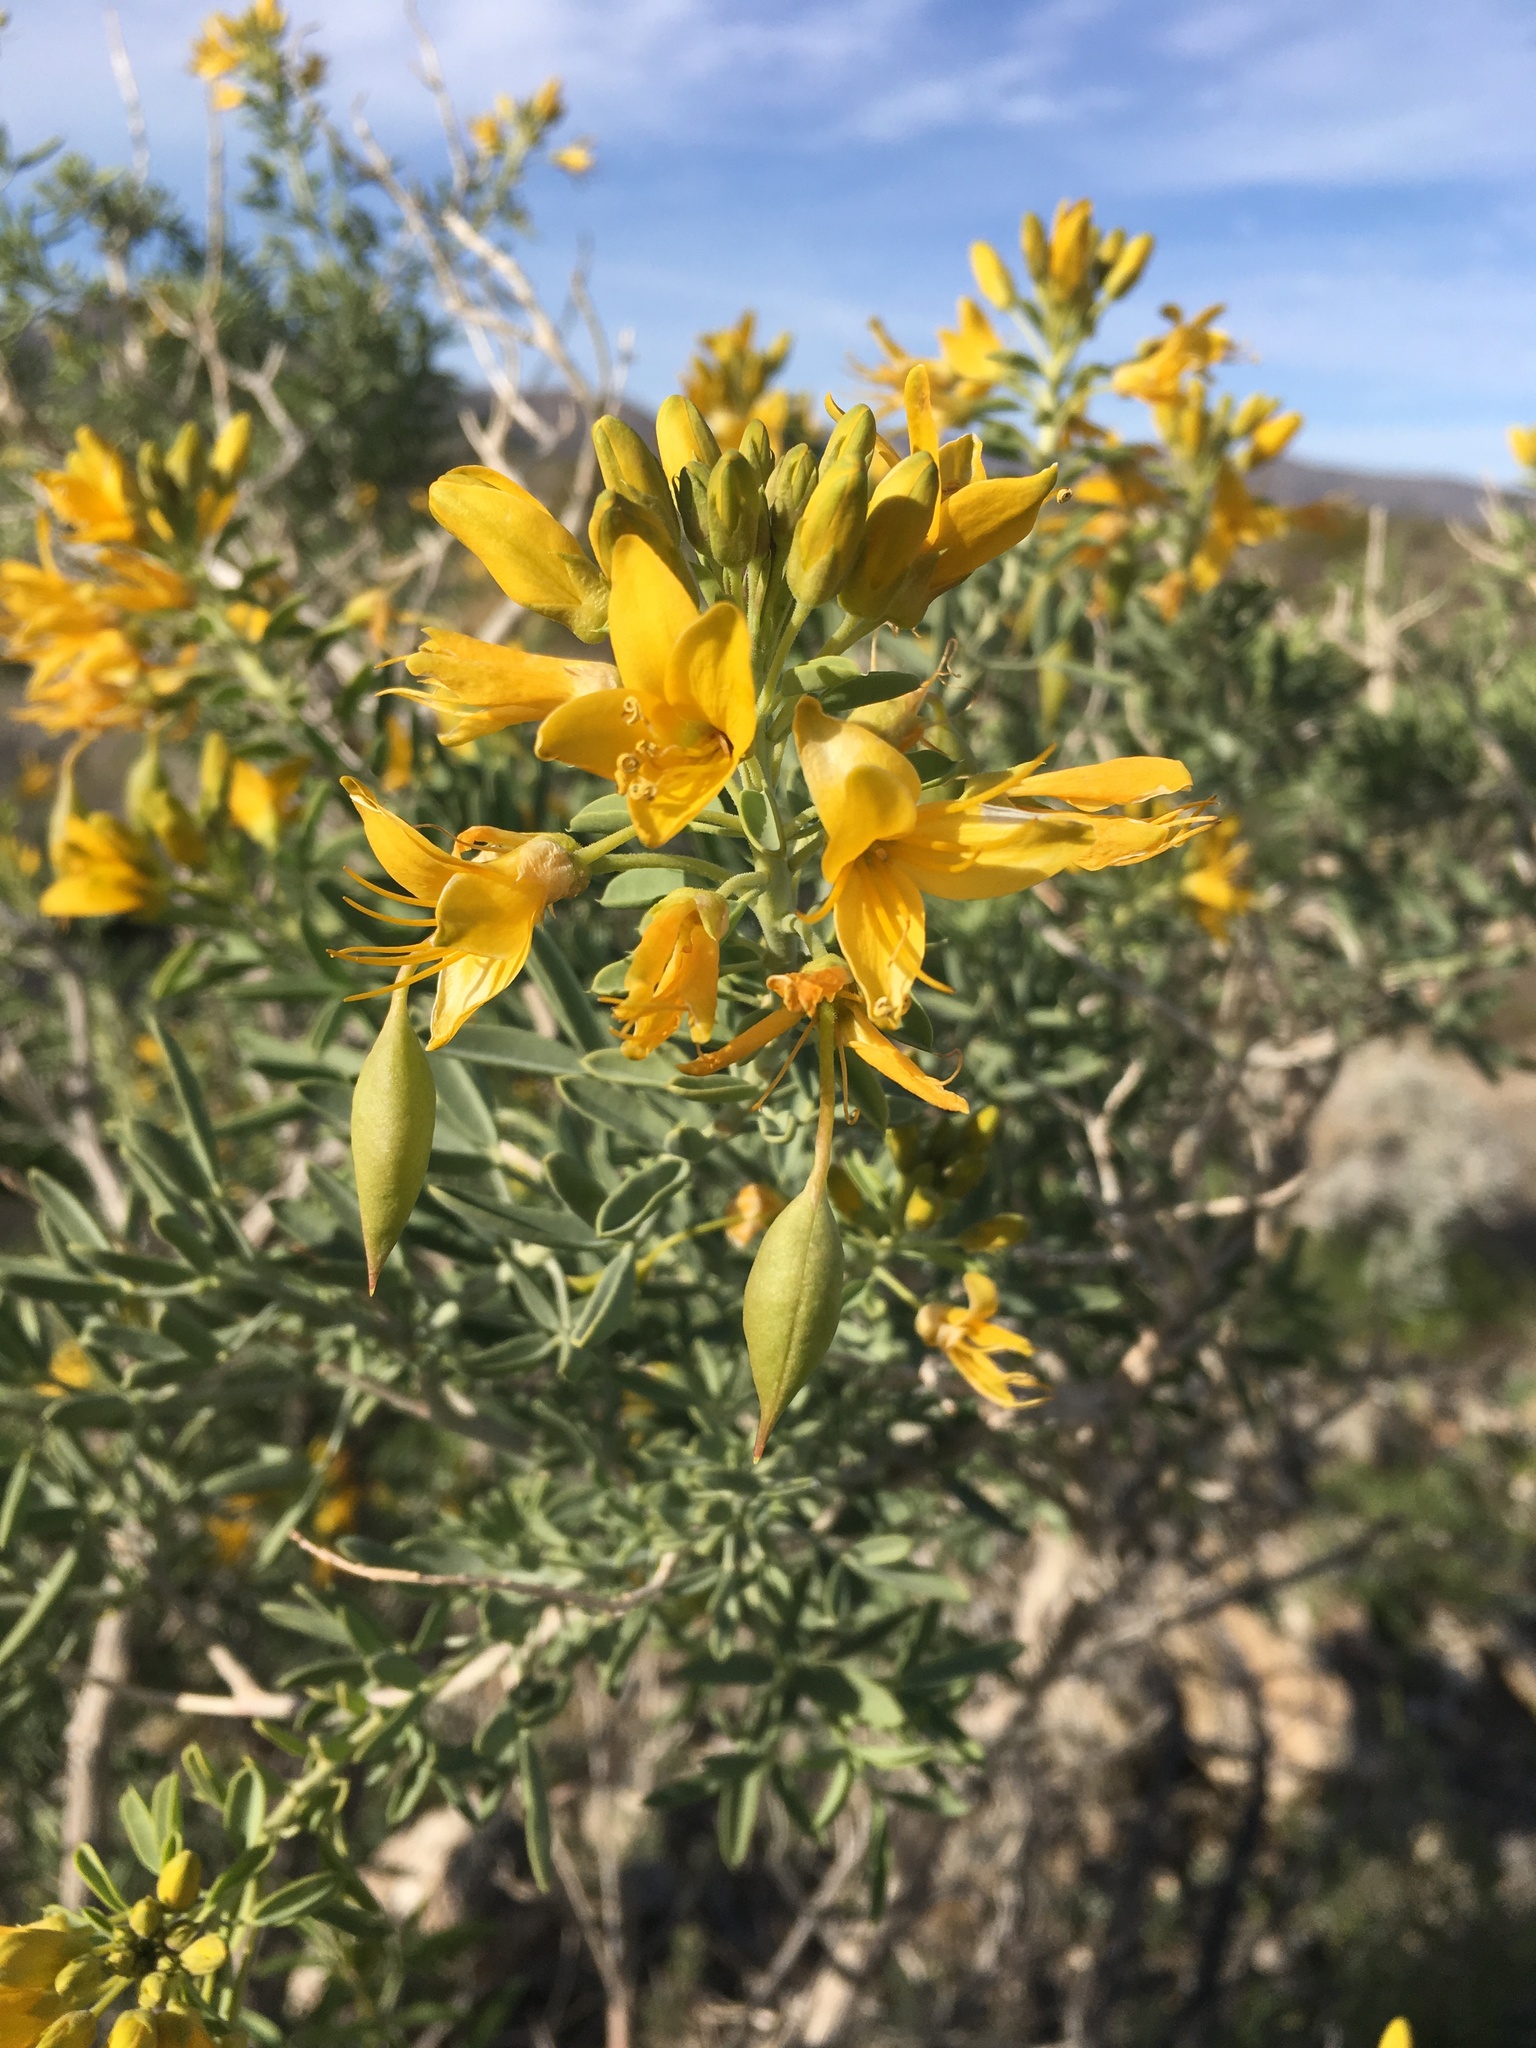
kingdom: Plantae
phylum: Tracheophyta
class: Magnoliopsida
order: Brassicales
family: Cleomaceae
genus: Cleomella
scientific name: Cleomella arborea
